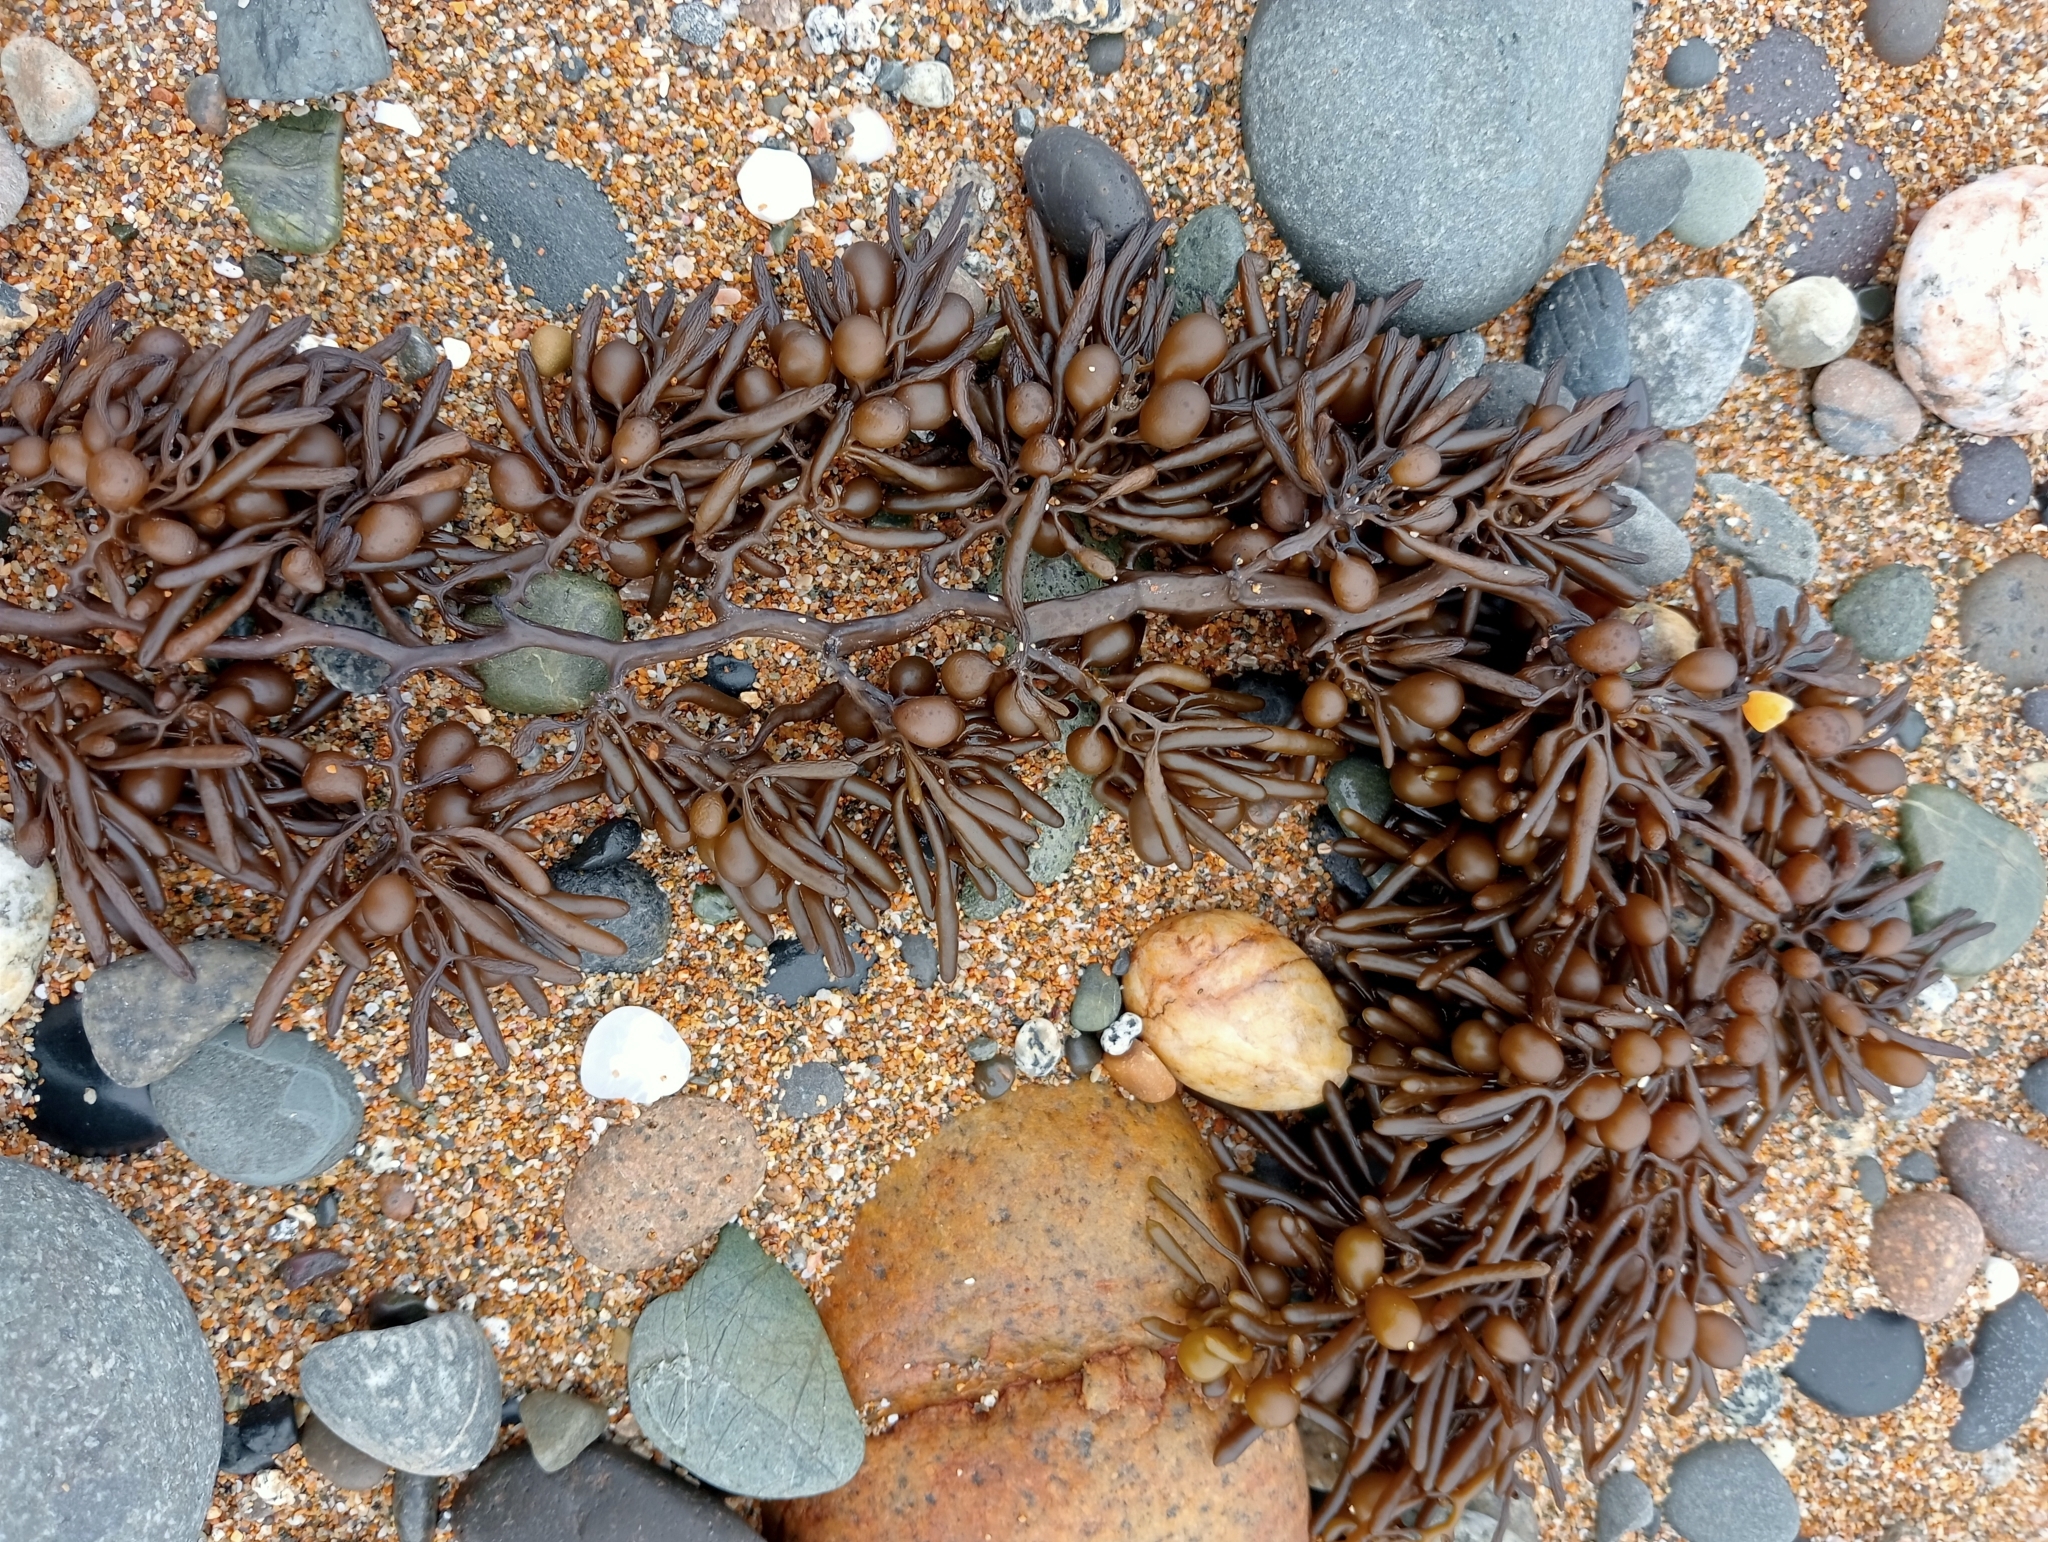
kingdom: Chromista
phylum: Ochrophyta
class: Phaeophyceae
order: Fucales
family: Sargassaceae
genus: Cystophora
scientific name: Cystophora torulosa
